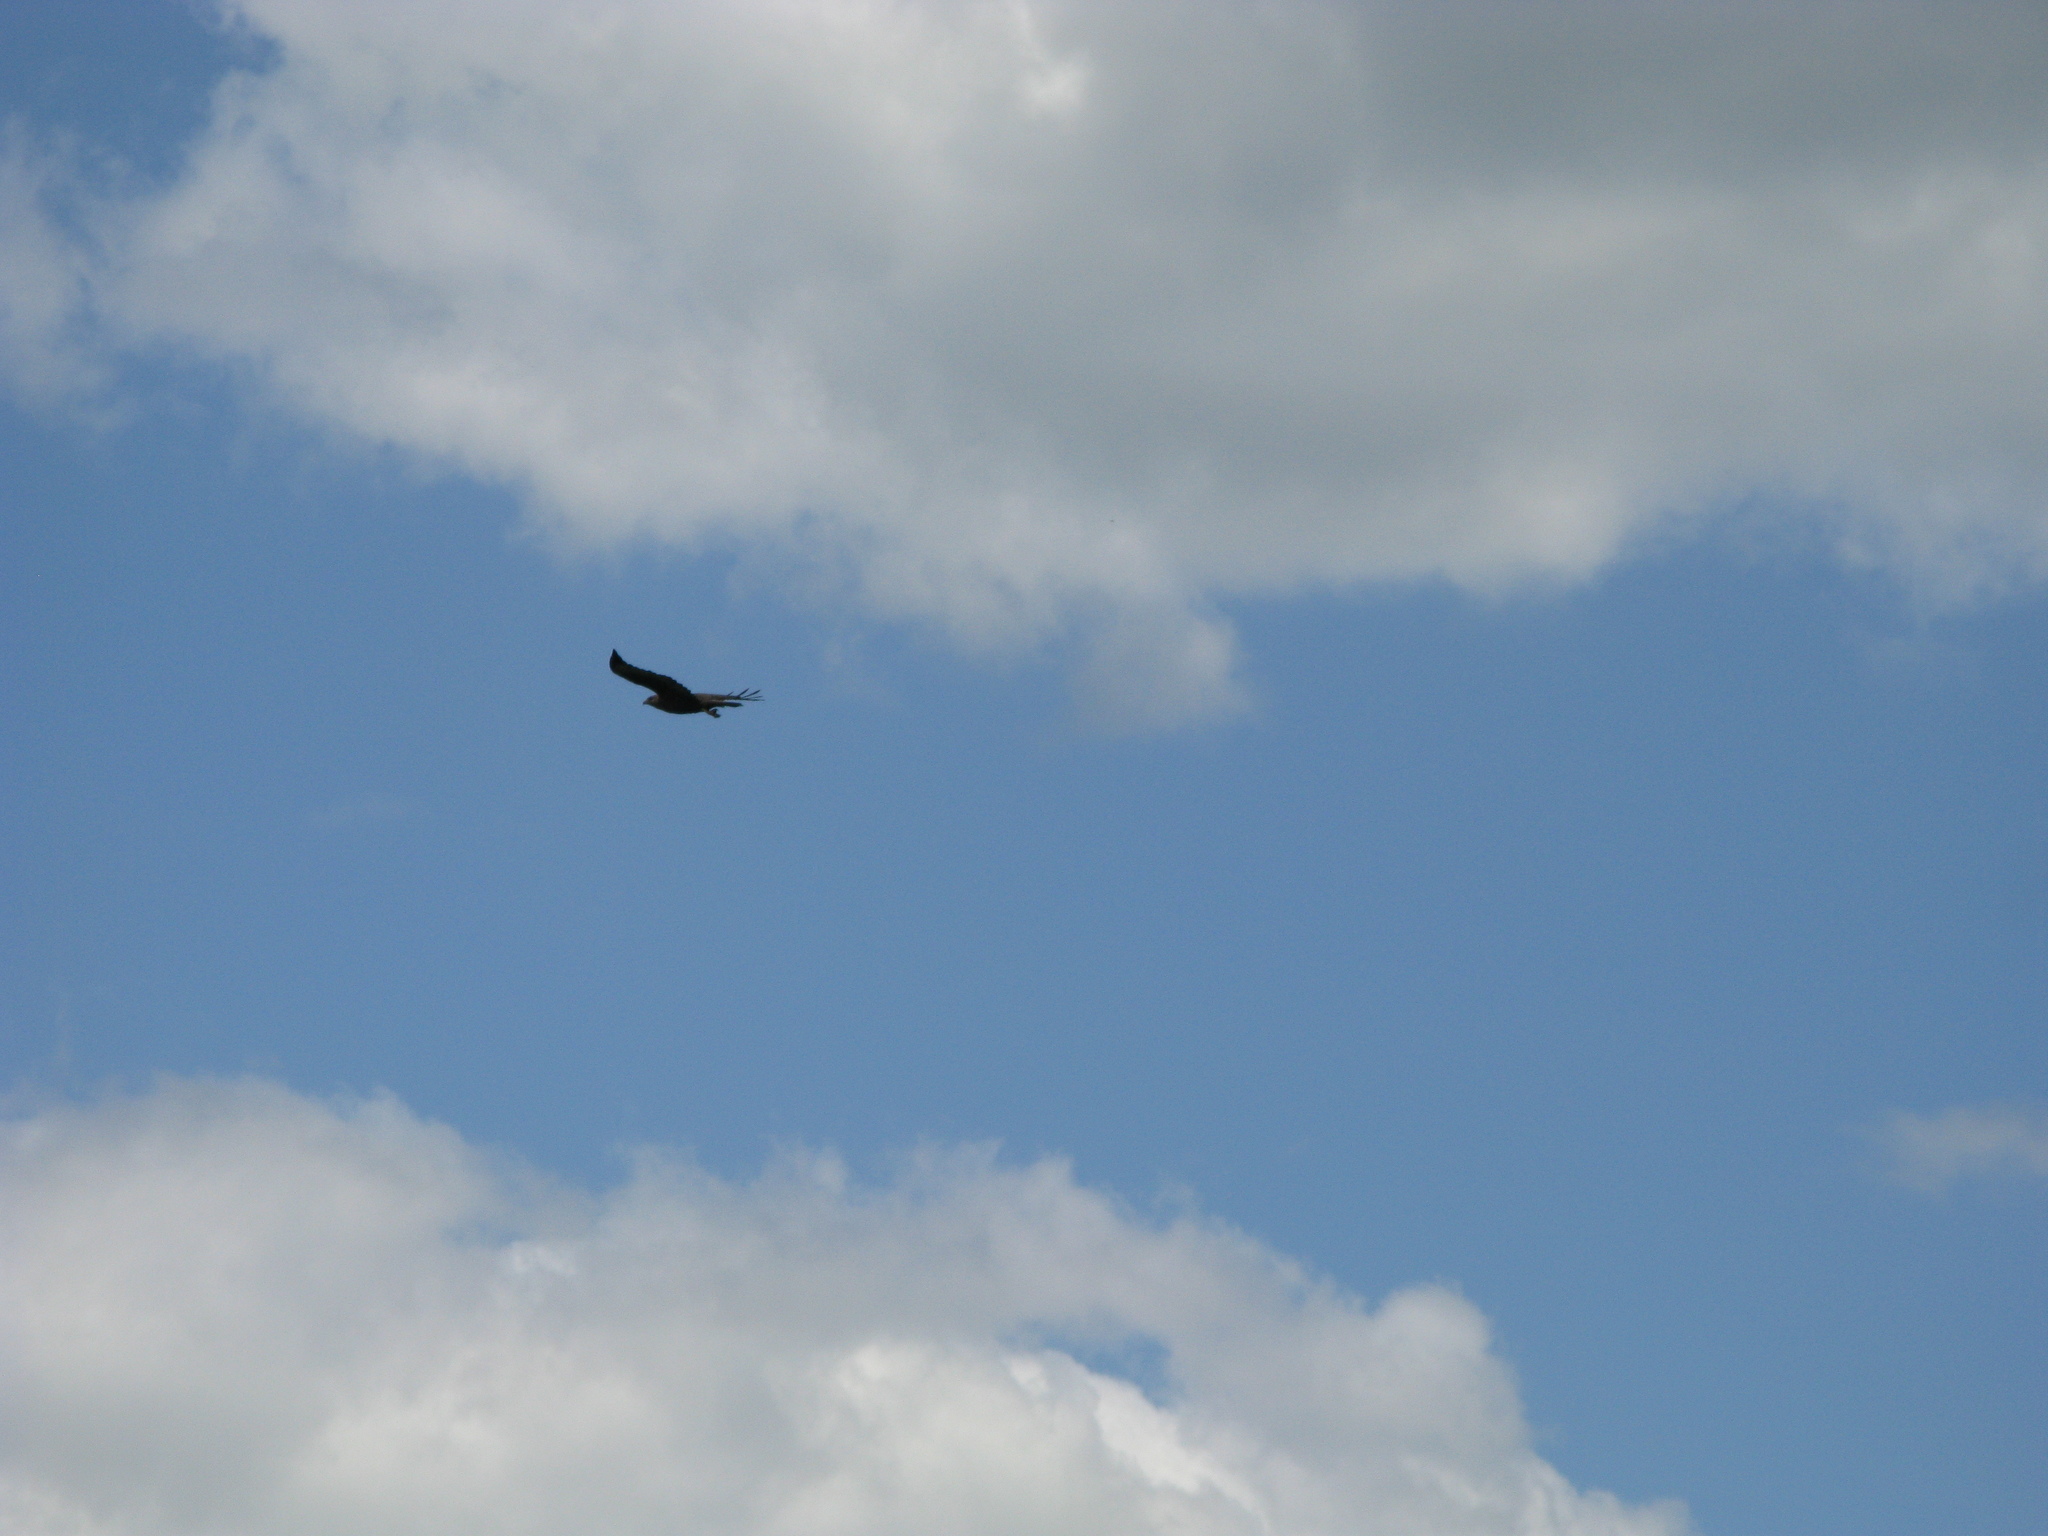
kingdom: Animalia
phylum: Chordata
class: Aves
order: Accipitriformes
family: Accipitridae
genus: Buteo
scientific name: Buteo buteo
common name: Common buzzard
